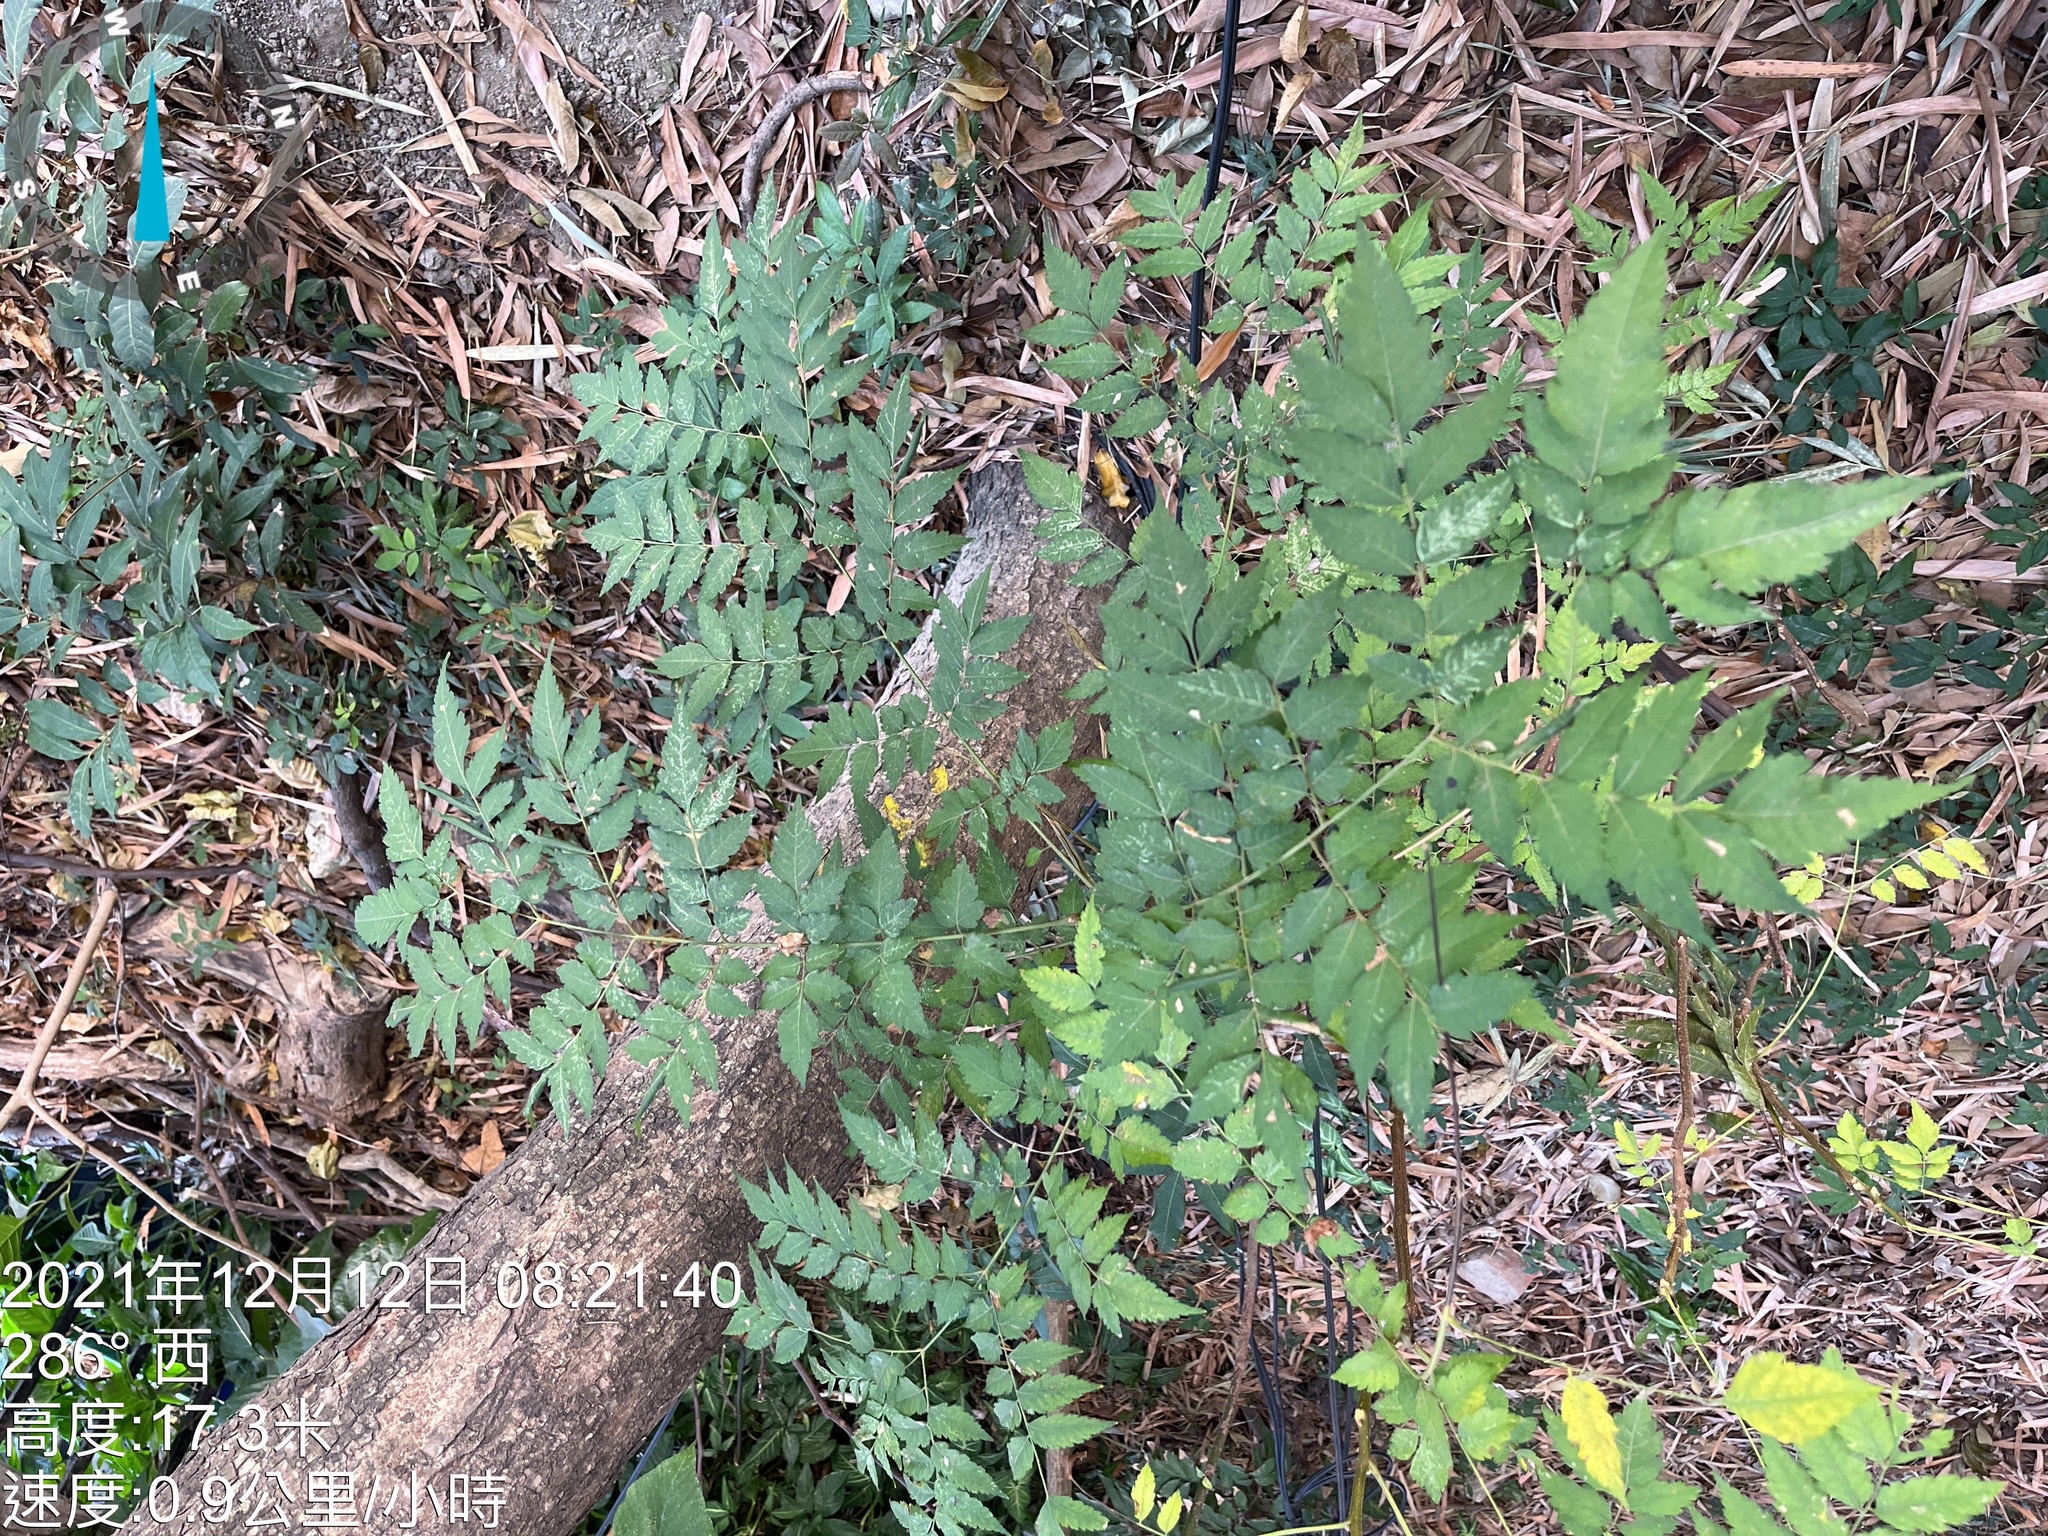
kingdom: Plantae
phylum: Tracheophyta
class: Magnoliopsida
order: Sapindales
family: Sapindaceae
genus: Koelreuteria
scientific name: Koelreuteria elegans
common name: Chinese flame tree
